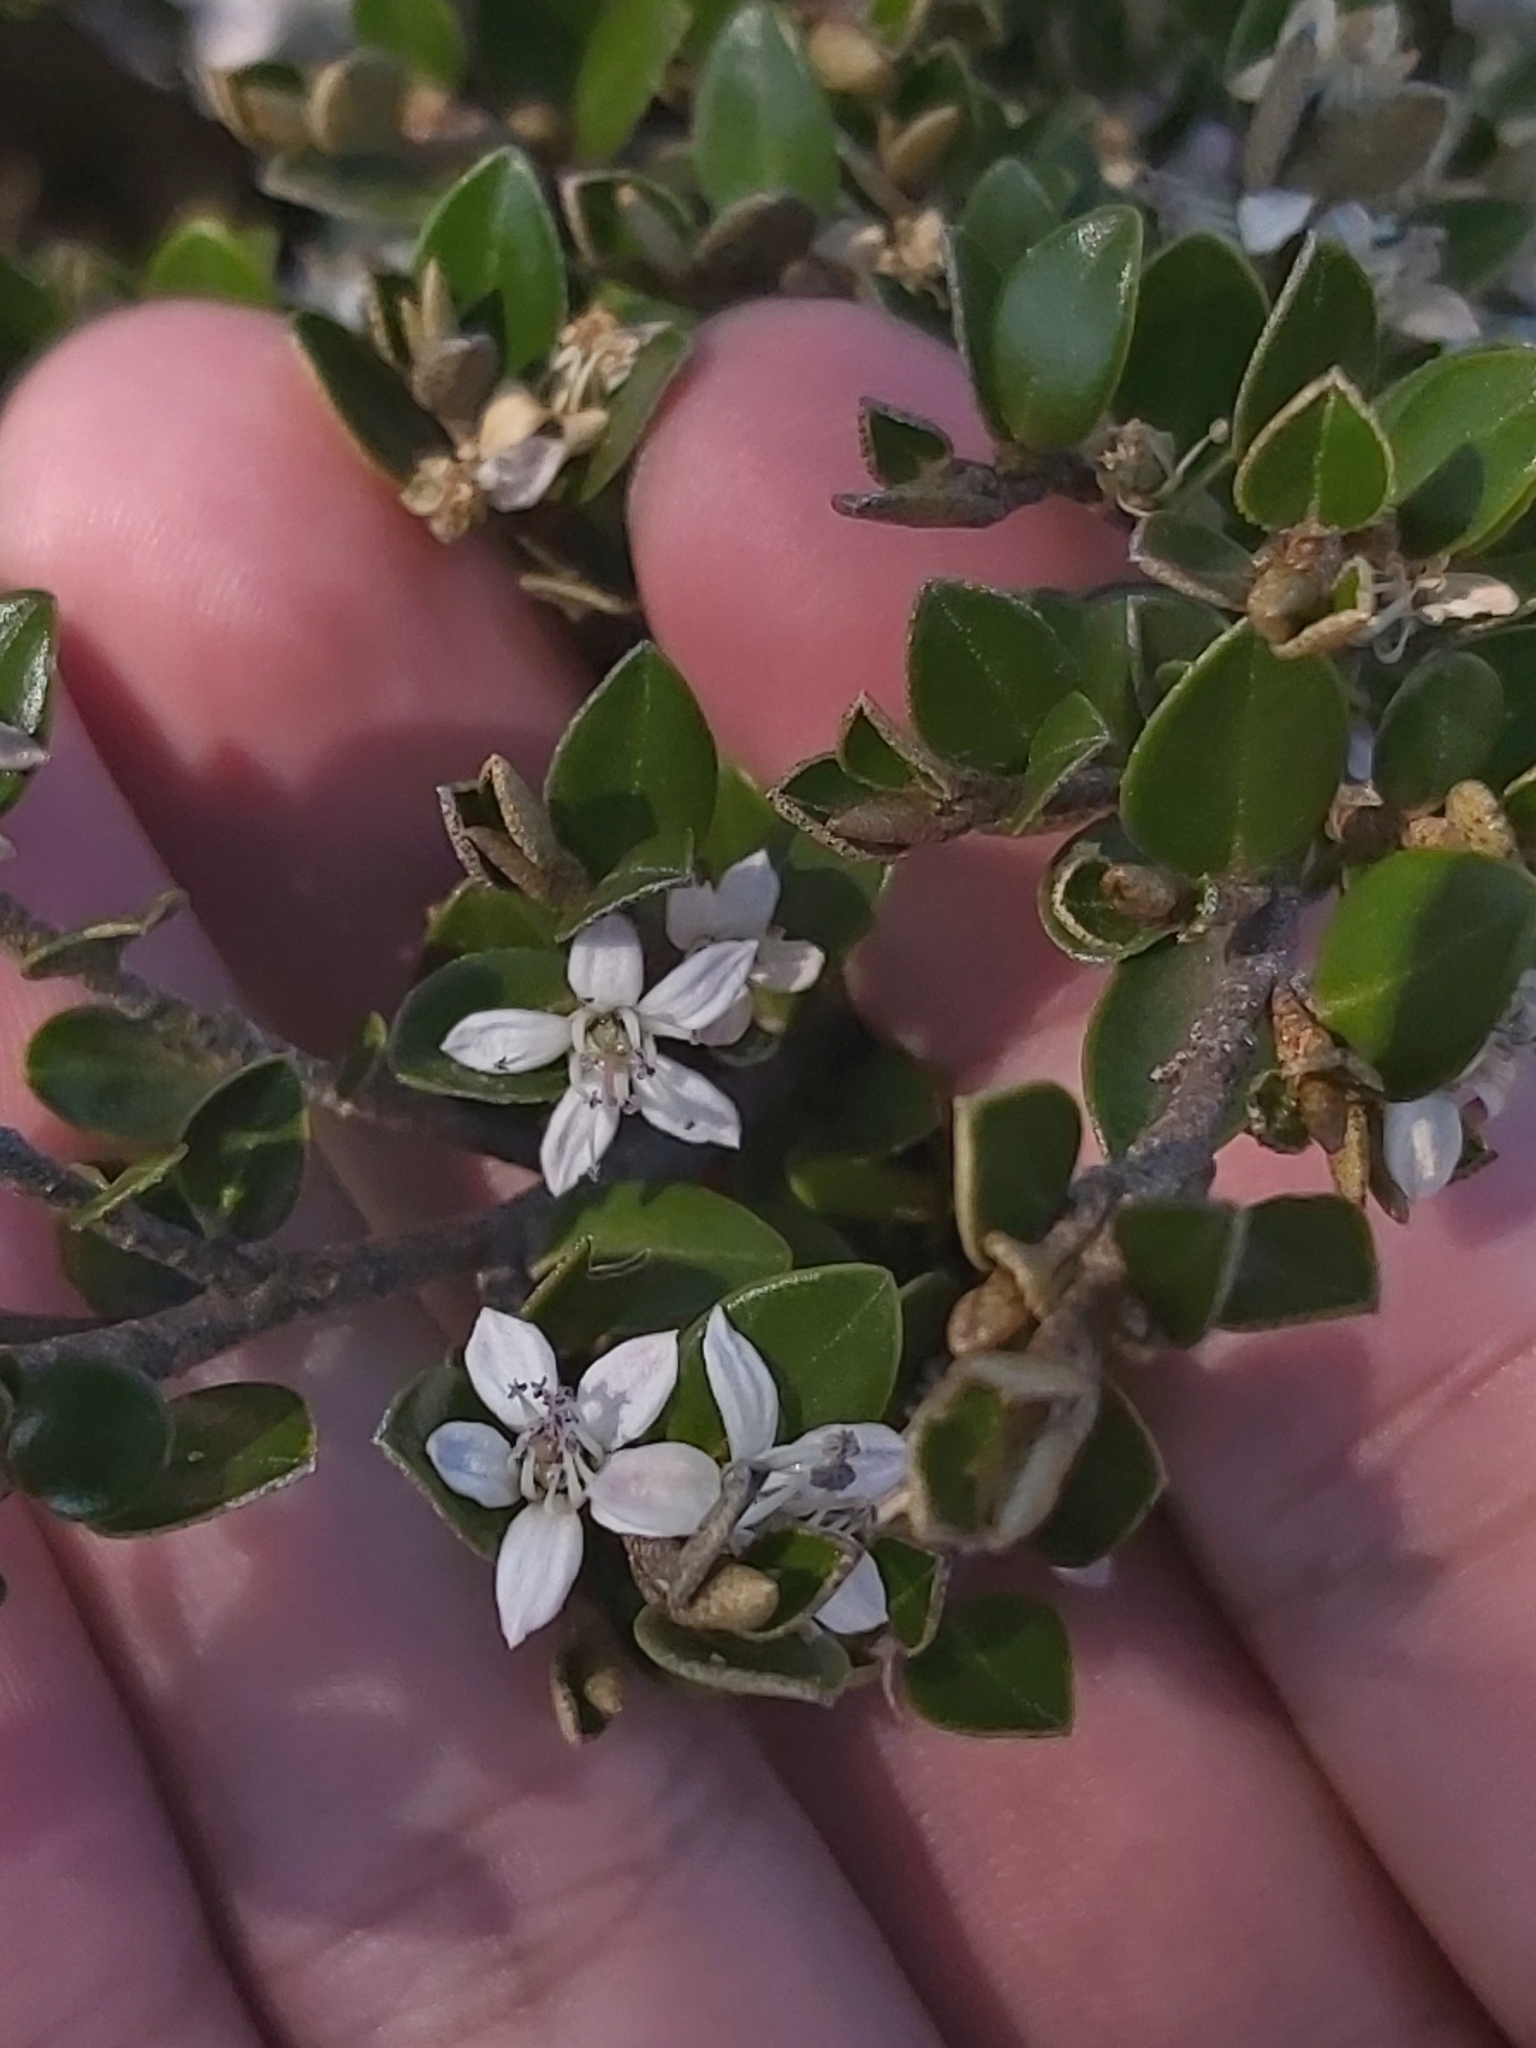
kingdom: Plantae
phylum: Tracheophyta
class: Magnoliopsida
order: Sapindales
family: Rutaceae
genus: Nematolepis
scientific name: Nematolepis ovatifolia
